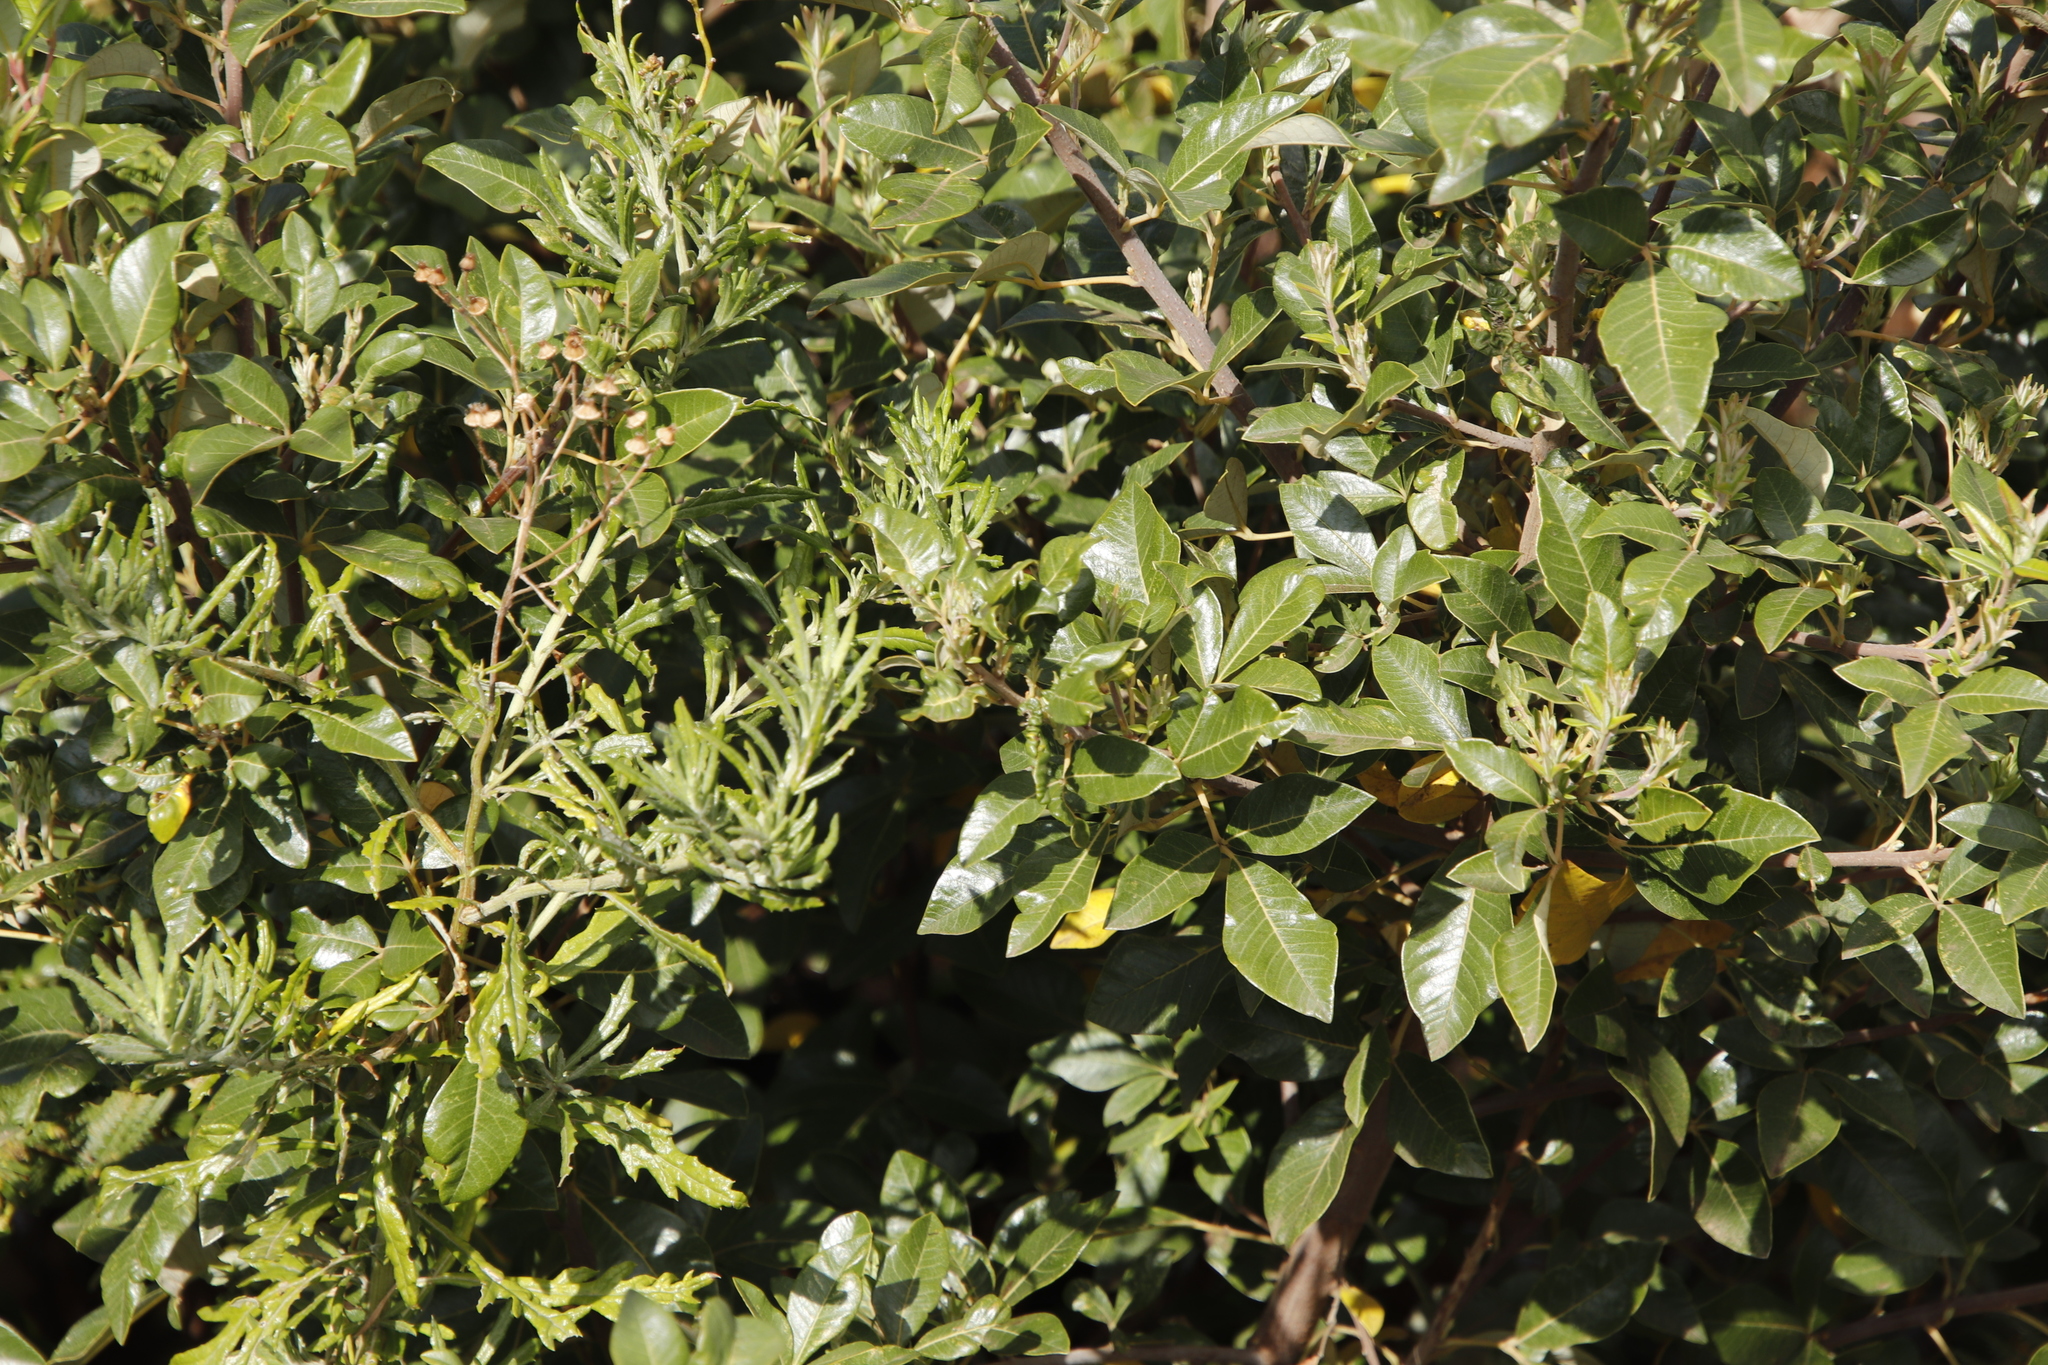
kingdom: Plantae
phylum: Tracheophyta
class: Magnoliopsida
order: Sapindales
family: Anacardiaceae
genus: Searsia
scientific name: Searsia tomentosa
